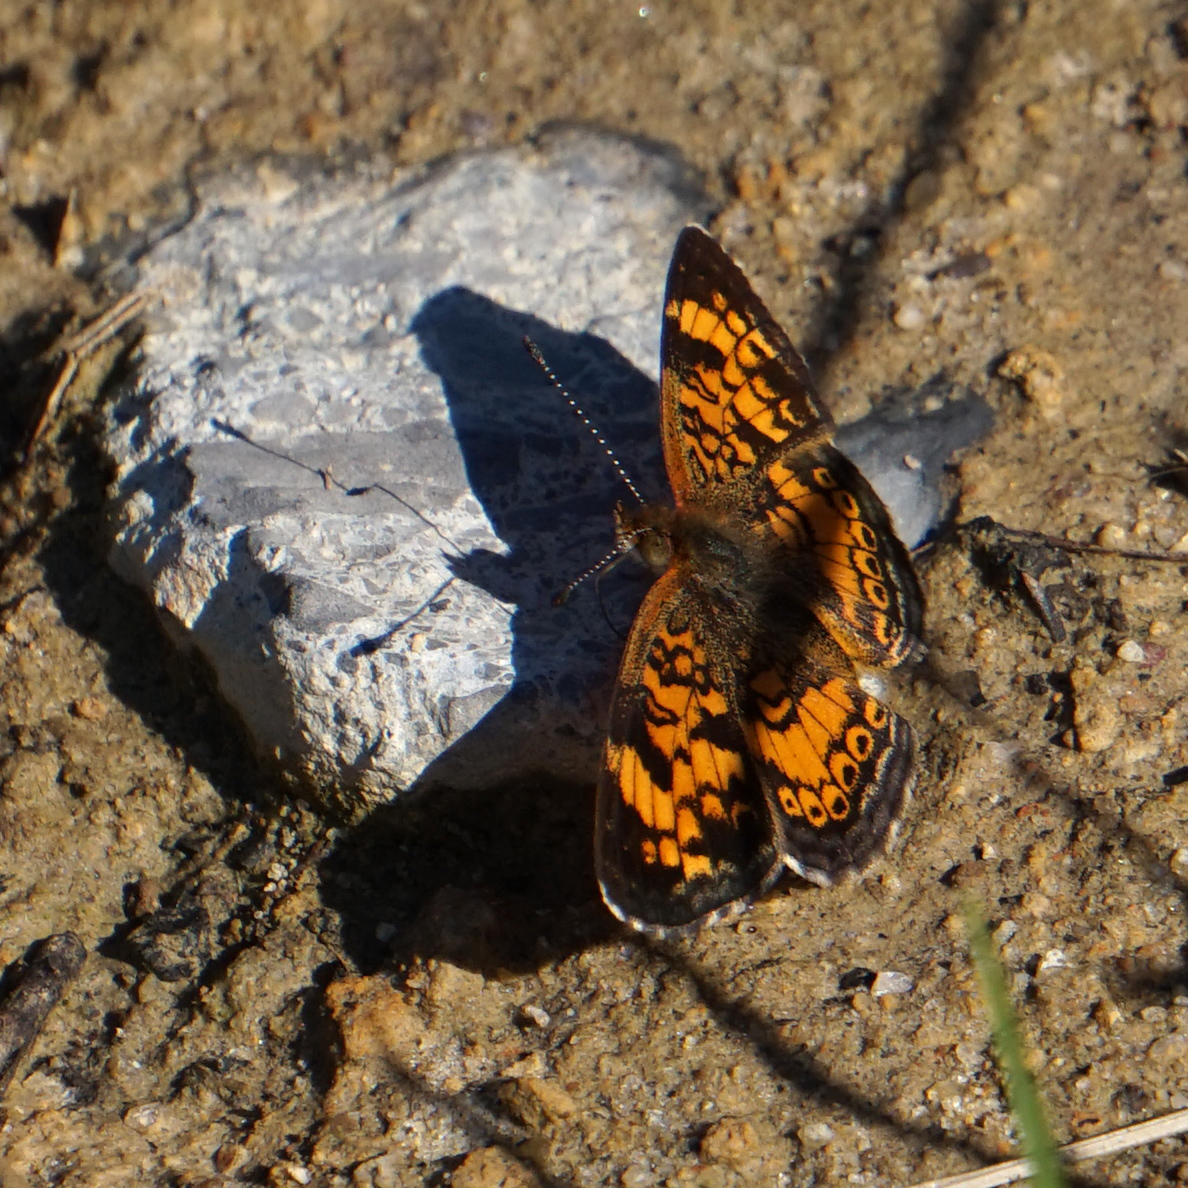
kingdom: Animalia
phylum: Arthropoda
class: Insecta
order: Lepidoptera
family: Nymphalidae
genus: Phyciodes
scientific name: Phyciodes tharos
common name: Pearl crescent
